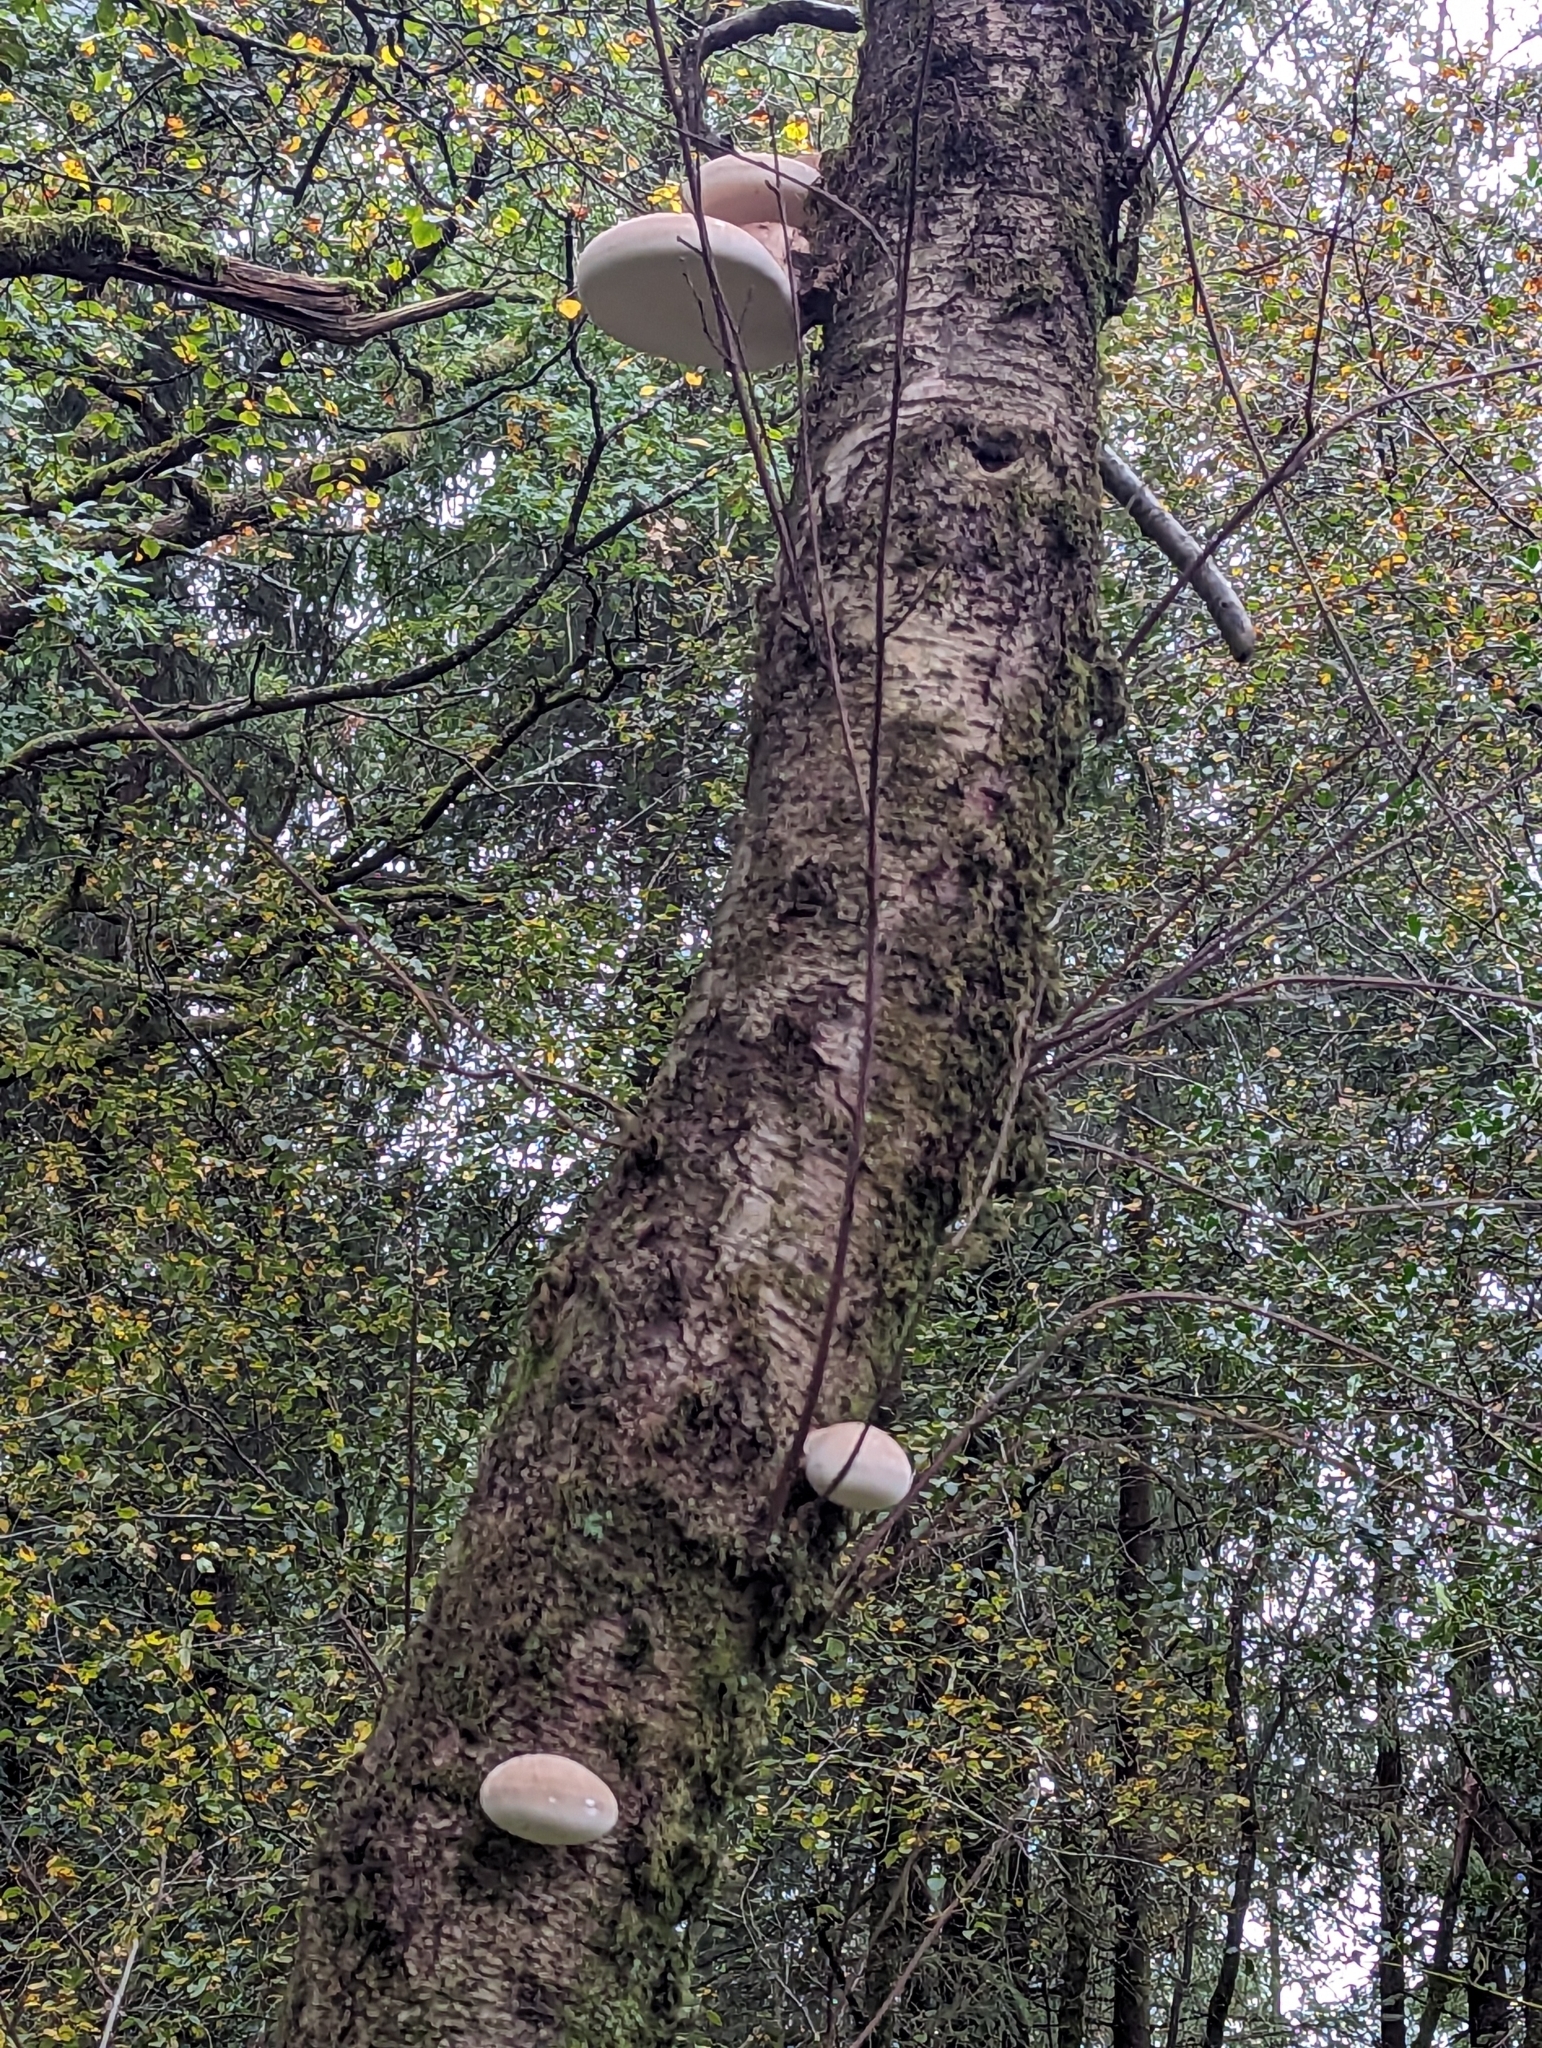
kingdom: Fungi
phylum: Basidiomycota
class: Agaricomycetes
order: Polyporales
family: Fomitopsidaceae
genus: Fomitopsis
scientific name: Fomitopsis betulina
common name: Birch polypore
